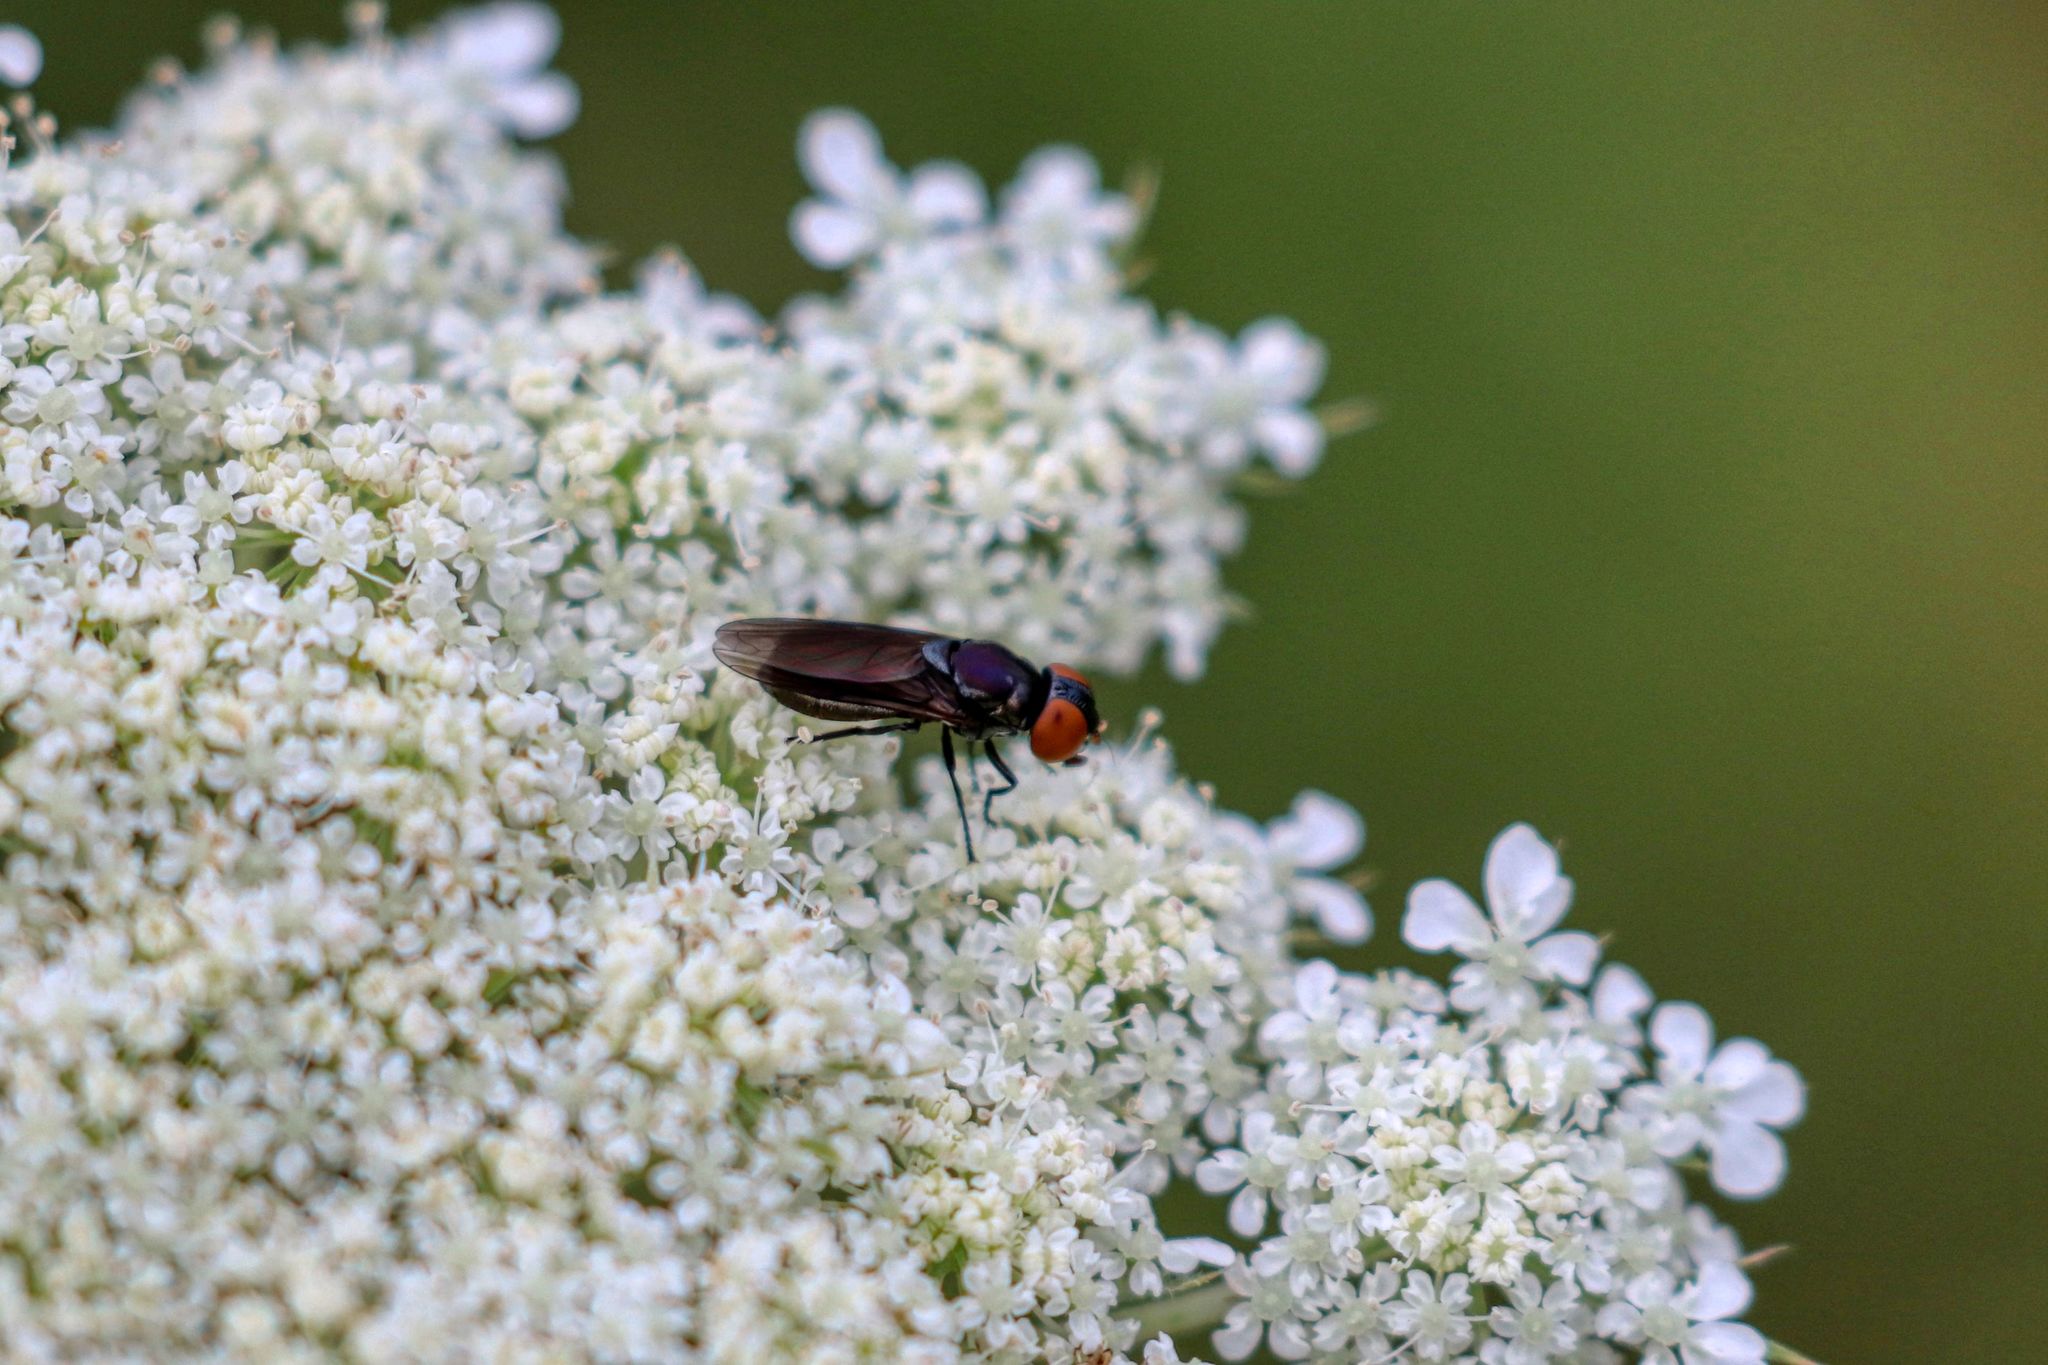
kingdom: Animalia
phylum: Arthropoda
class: Insecta
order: Diptera
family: Syrphidae
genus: Chrysogaster
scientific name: Chrysogaster solstitialis
